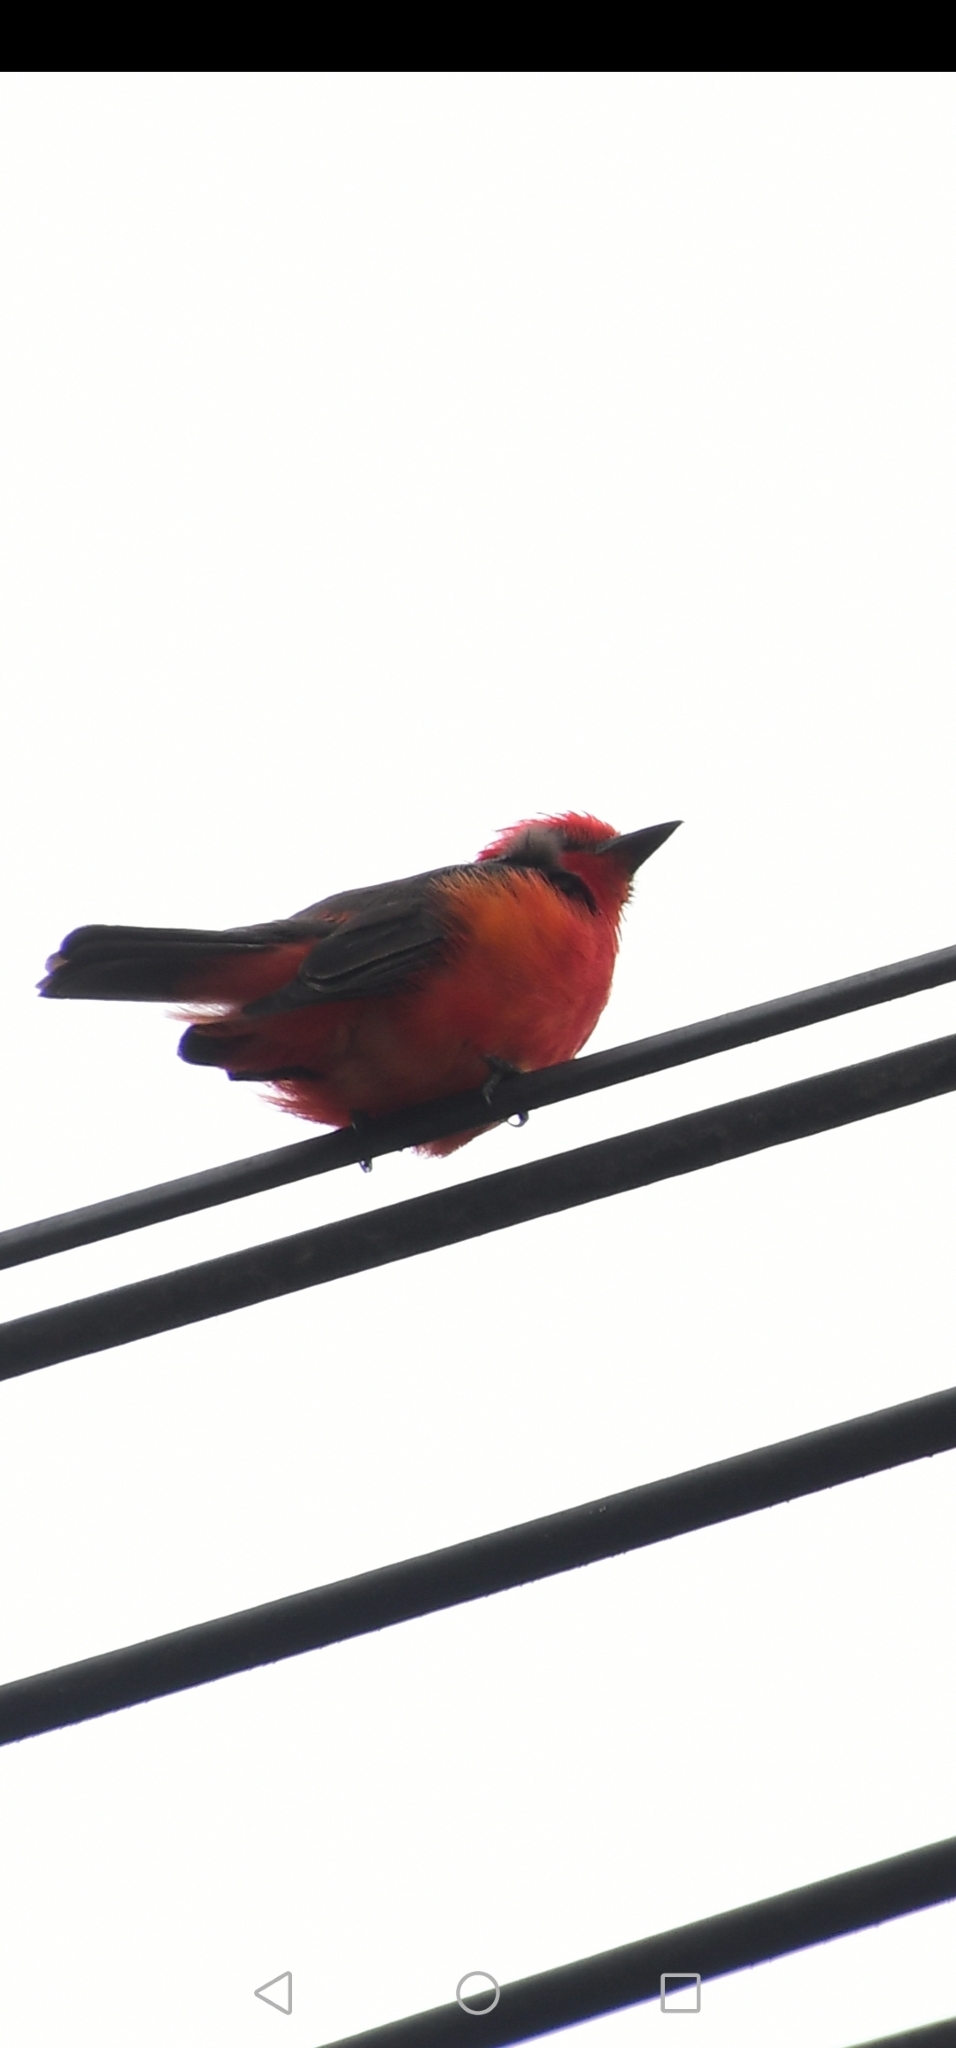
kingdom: Animalia
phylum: Chordata
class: Aves
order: Passeriformes
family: Tyrannidae
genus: Pyrocephalus
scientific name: Pyrocephalus rubinus
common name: Vermilion flycatcher
